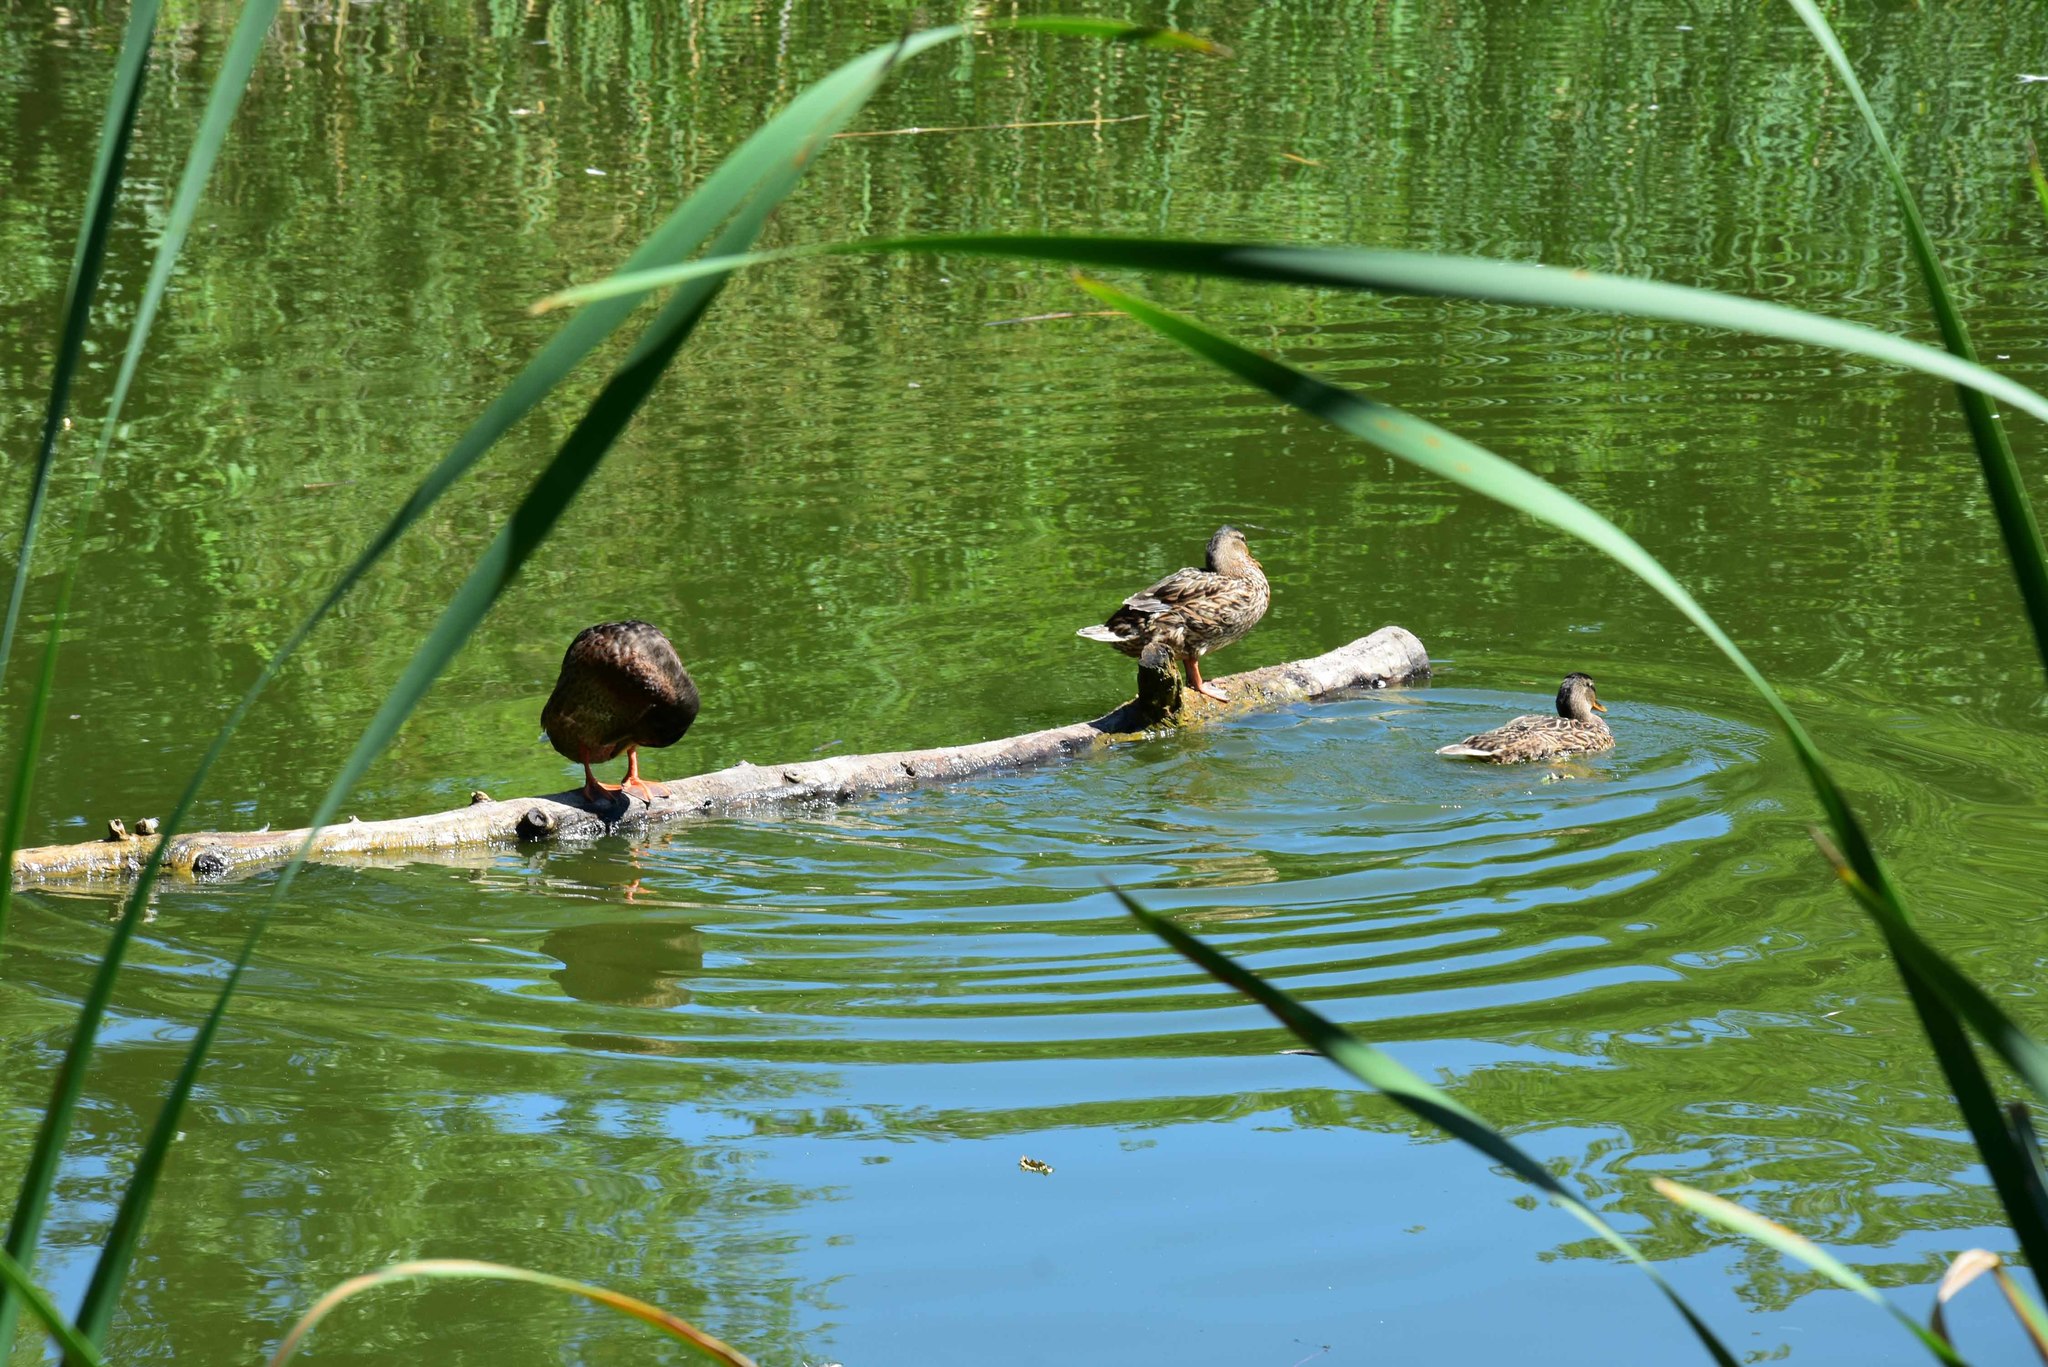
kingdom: Animalia
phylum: Chordata
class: Aves
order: Anseriformes
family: Anatidae
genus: Anas
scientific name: Anas platyrhynchos
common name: Mallard
